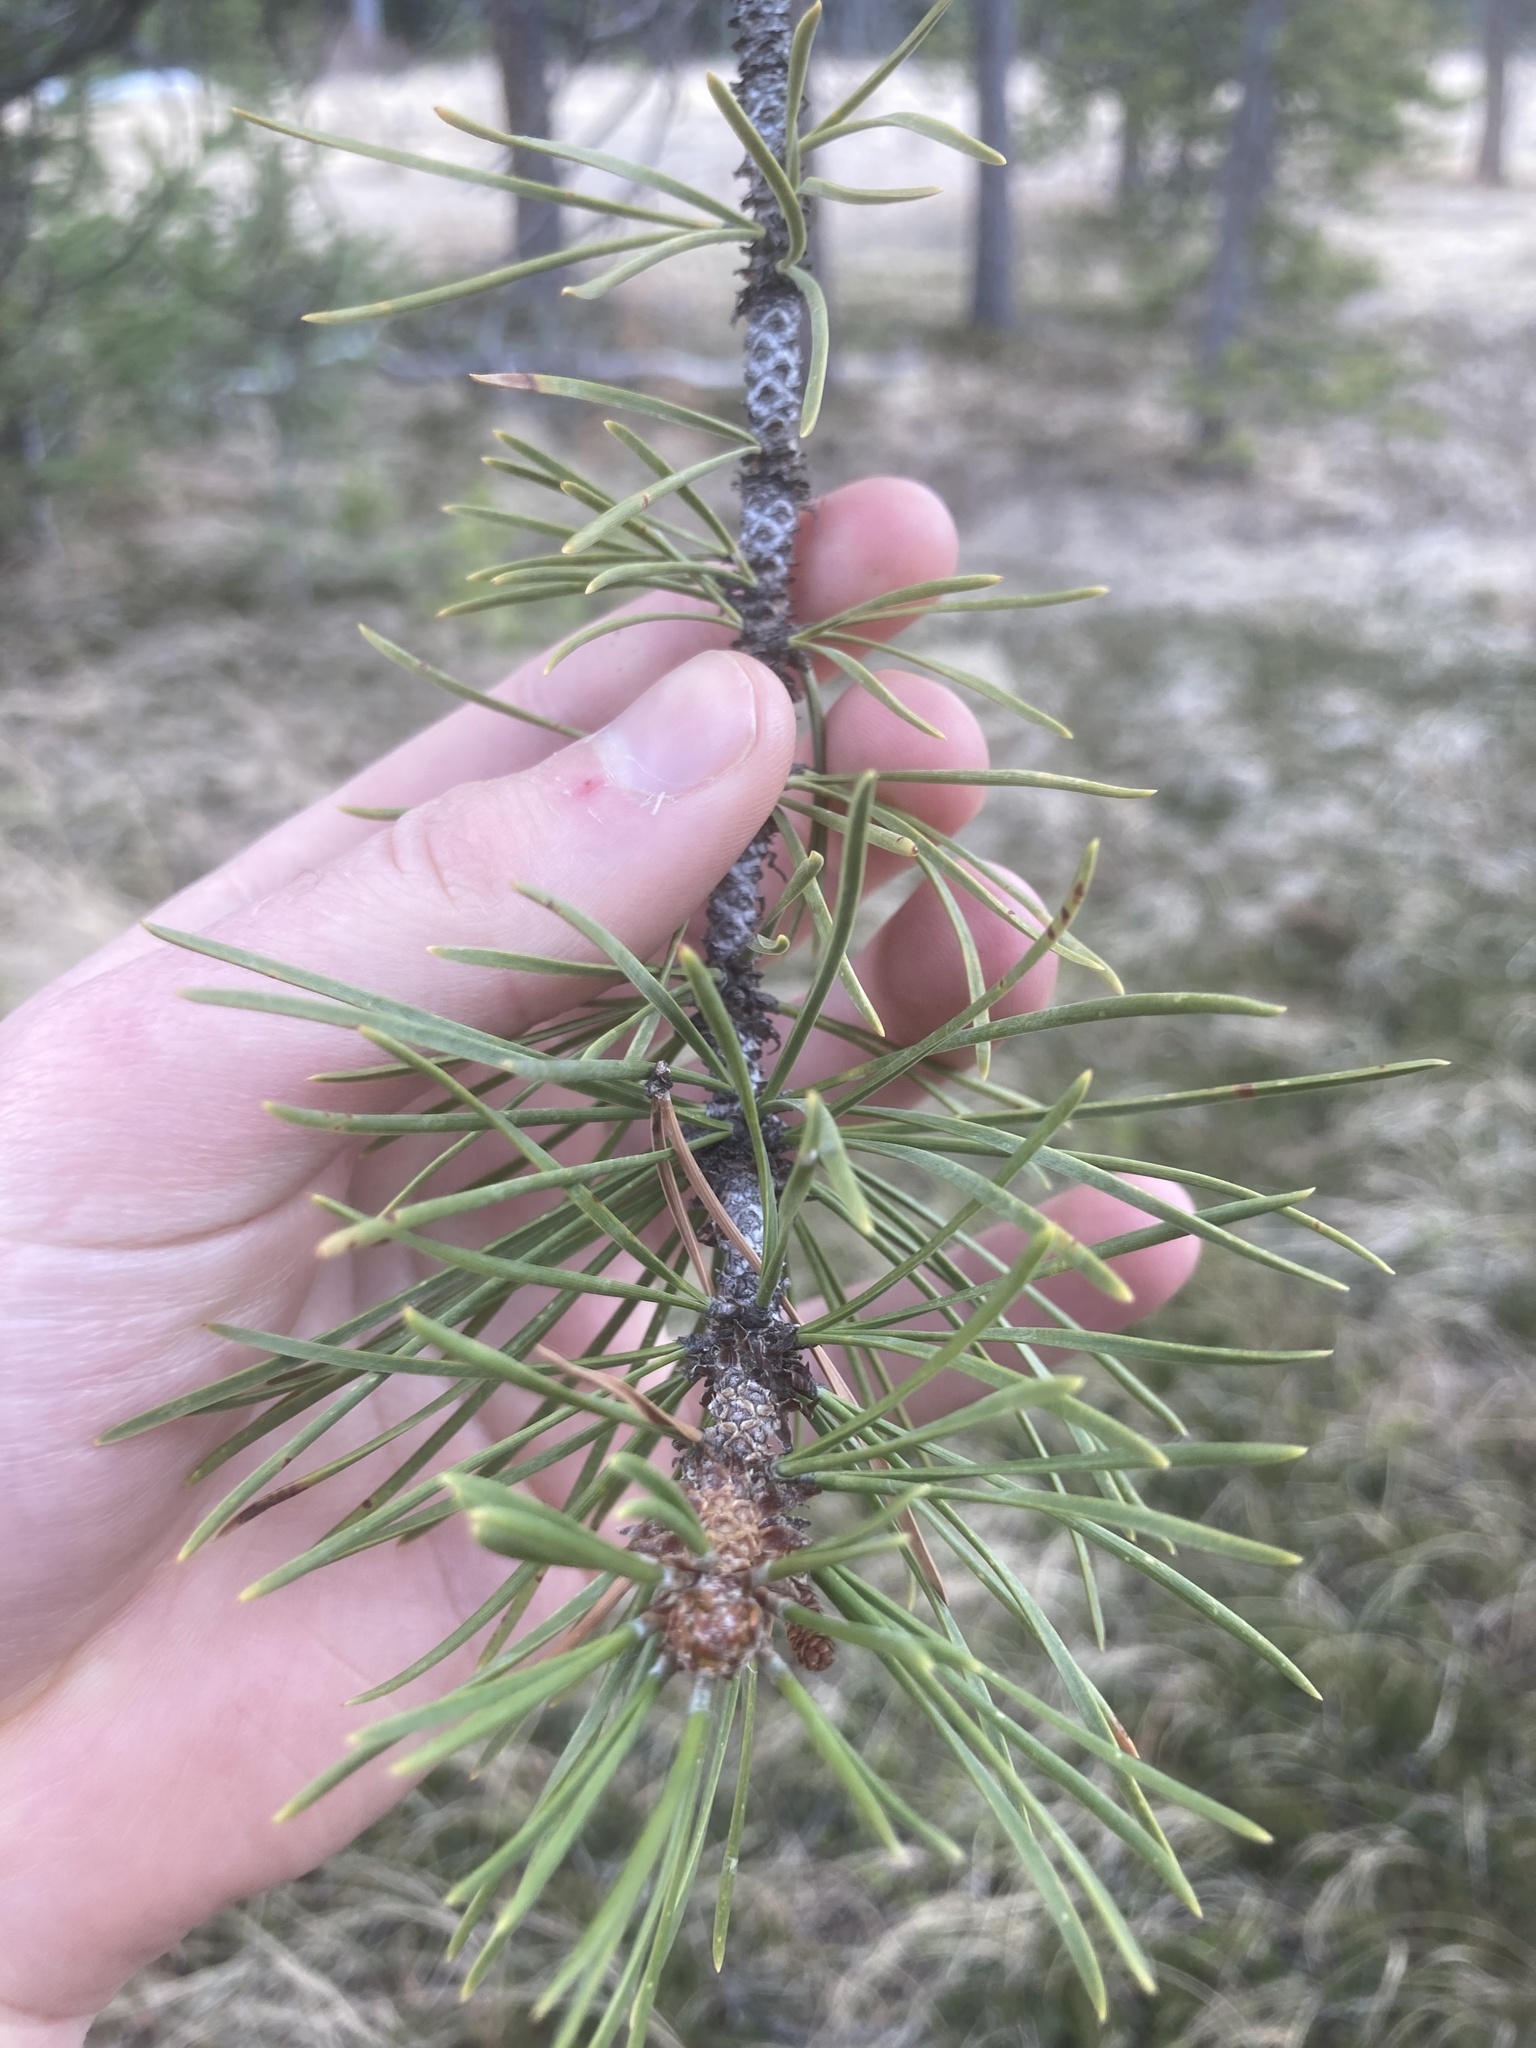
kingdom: Plantae
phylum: Tracheophyta
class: Pinopsida
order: Pinales
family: Pinaceae
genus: Pinus
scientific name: Pinus contorta
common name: Lodgepole pine
